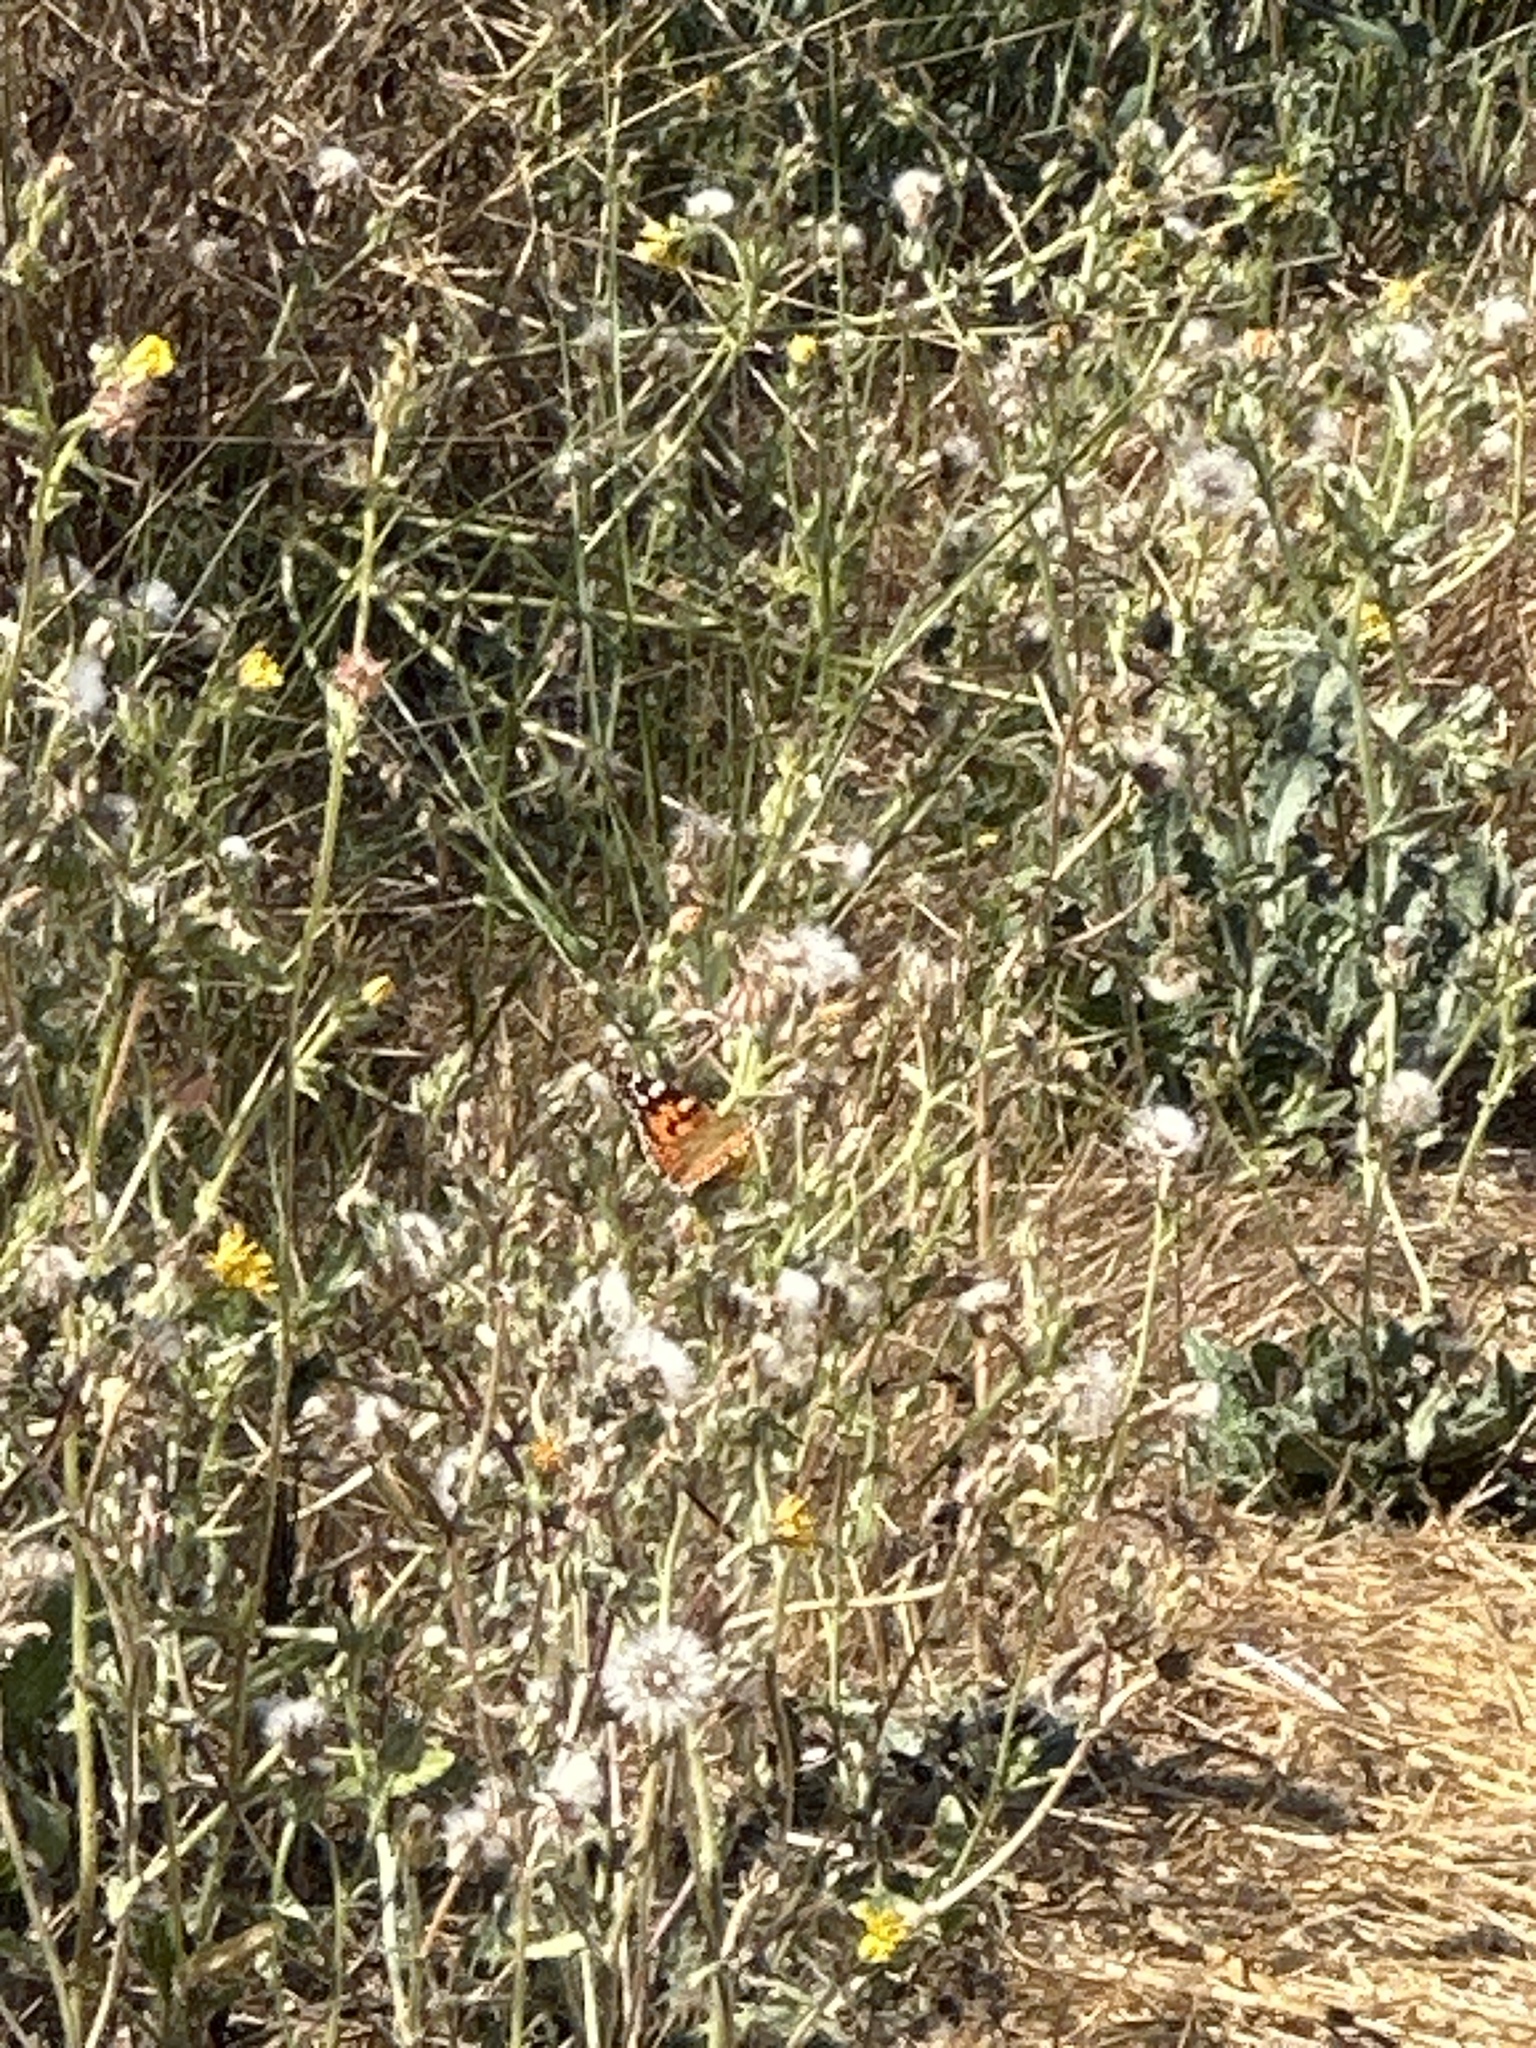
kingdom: Animalia
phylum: Arthropoda
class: Insecta
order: Lepidoptera
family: Nymphalidae
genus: Vanessa
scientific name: Vanessa cardui
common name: Painted lady
